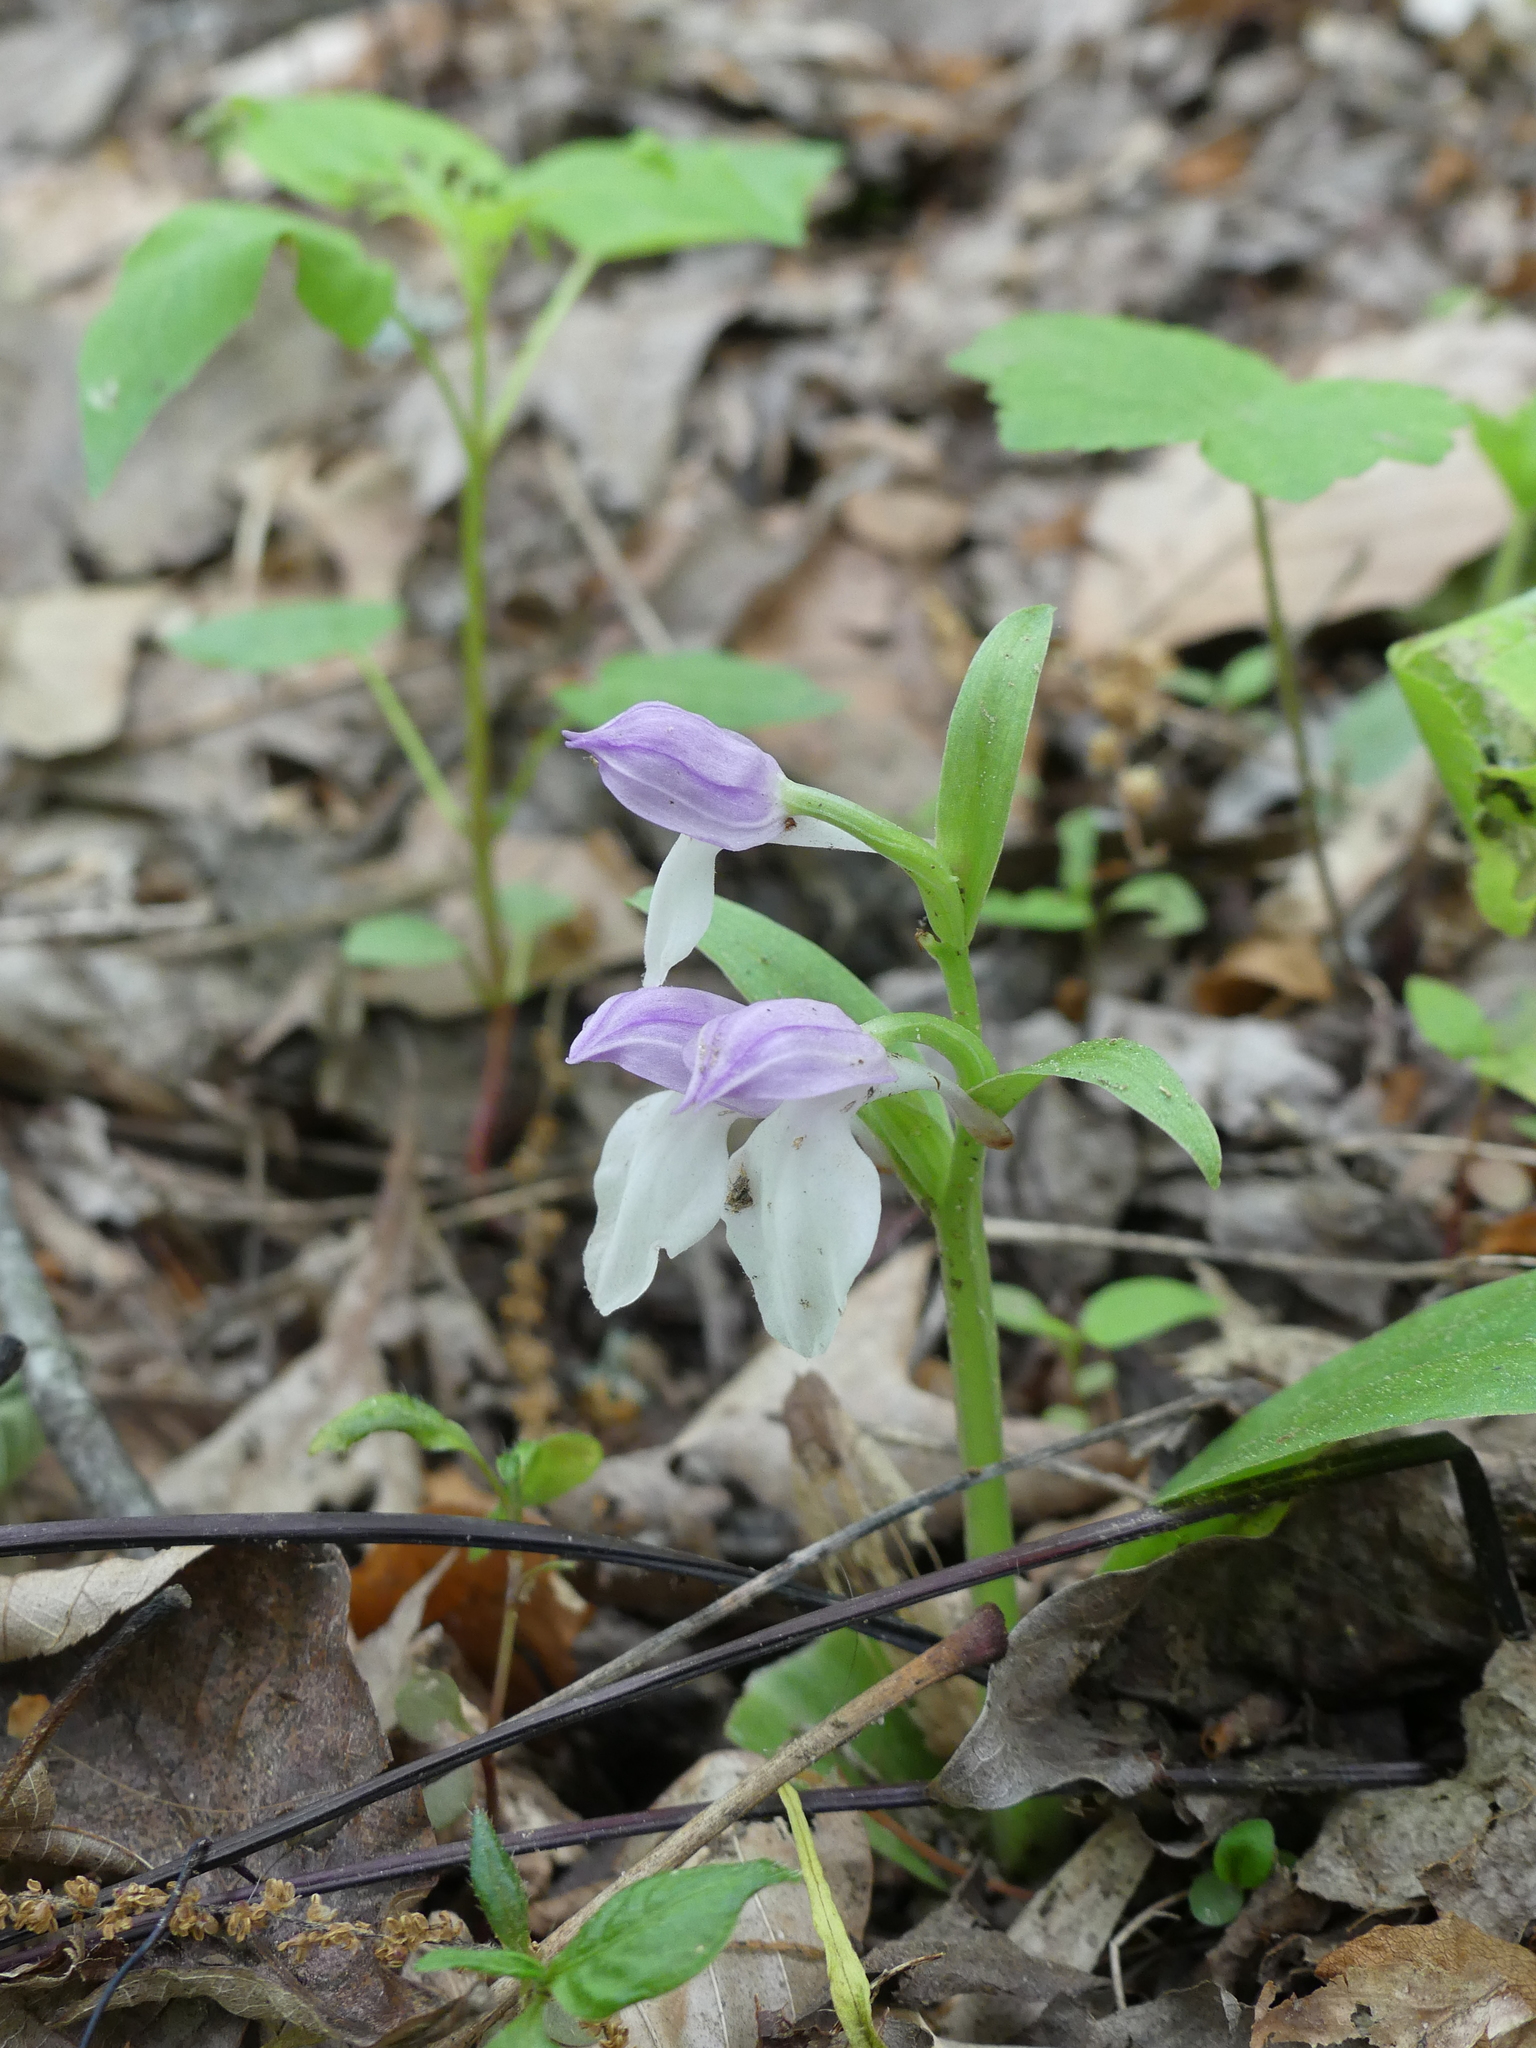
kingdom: Plantae
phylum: Tracheophyta
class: Liliopsida
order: Asparagales
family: Orchidaceae
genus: Galearis
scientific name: Galearis spectabilis
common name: Purple-hooded orchis
